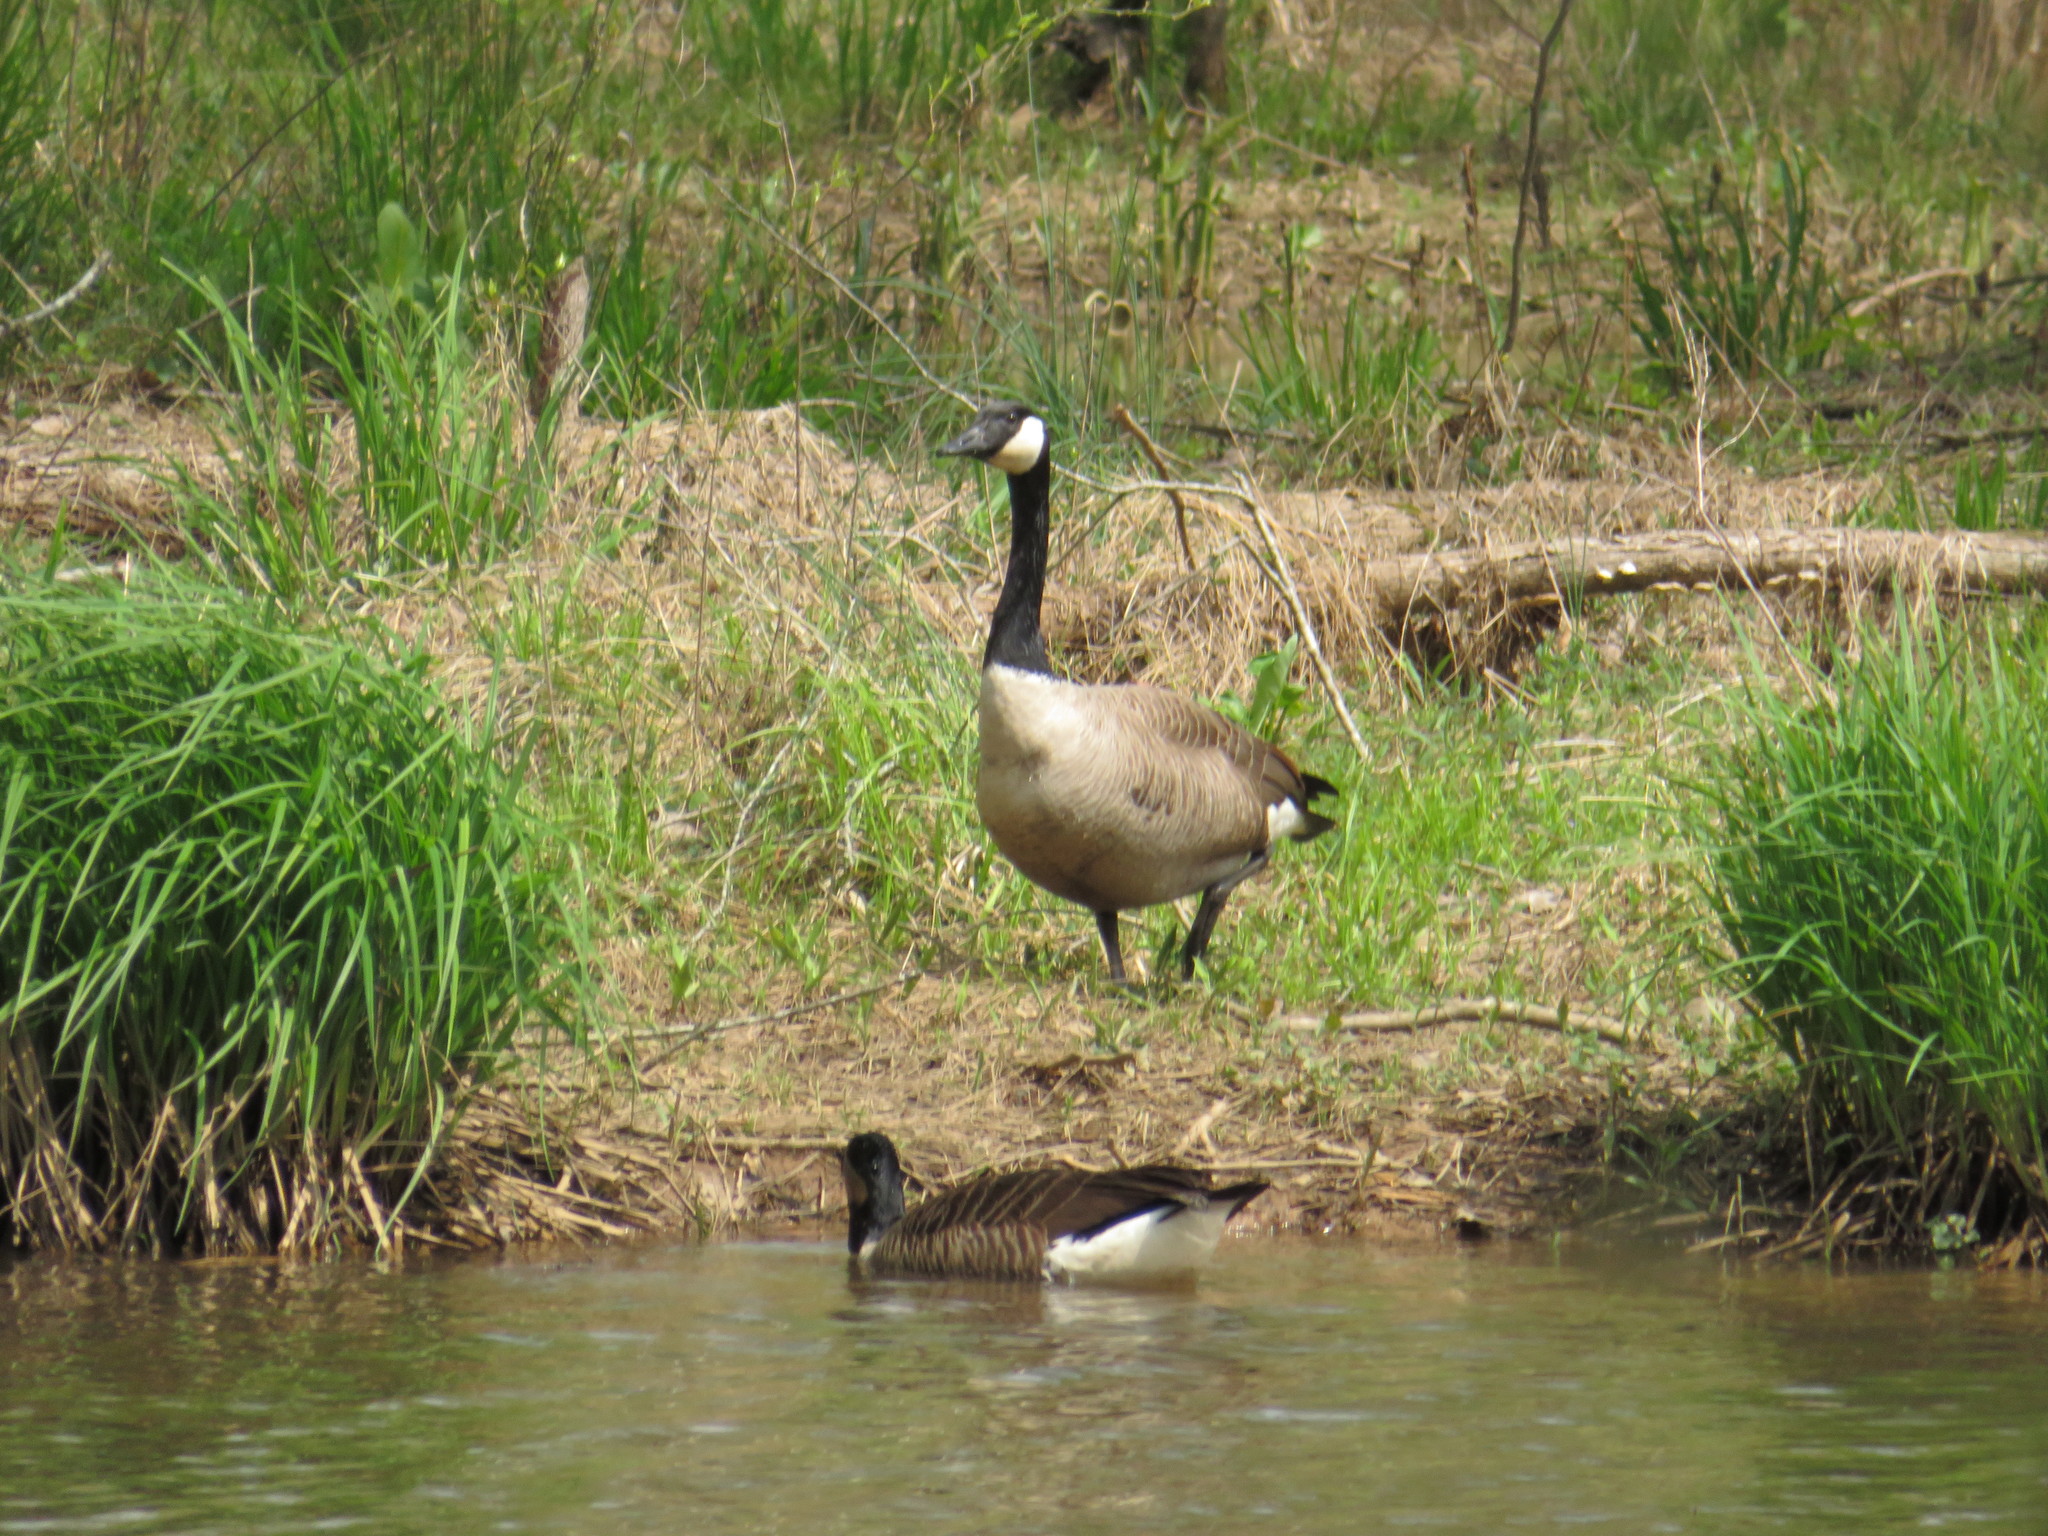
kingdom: Animalia
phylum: Chordata
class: Aves
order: Anseriformes
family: Anatidae
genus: Branta
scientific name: Branta canadensis
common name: Canada goose
